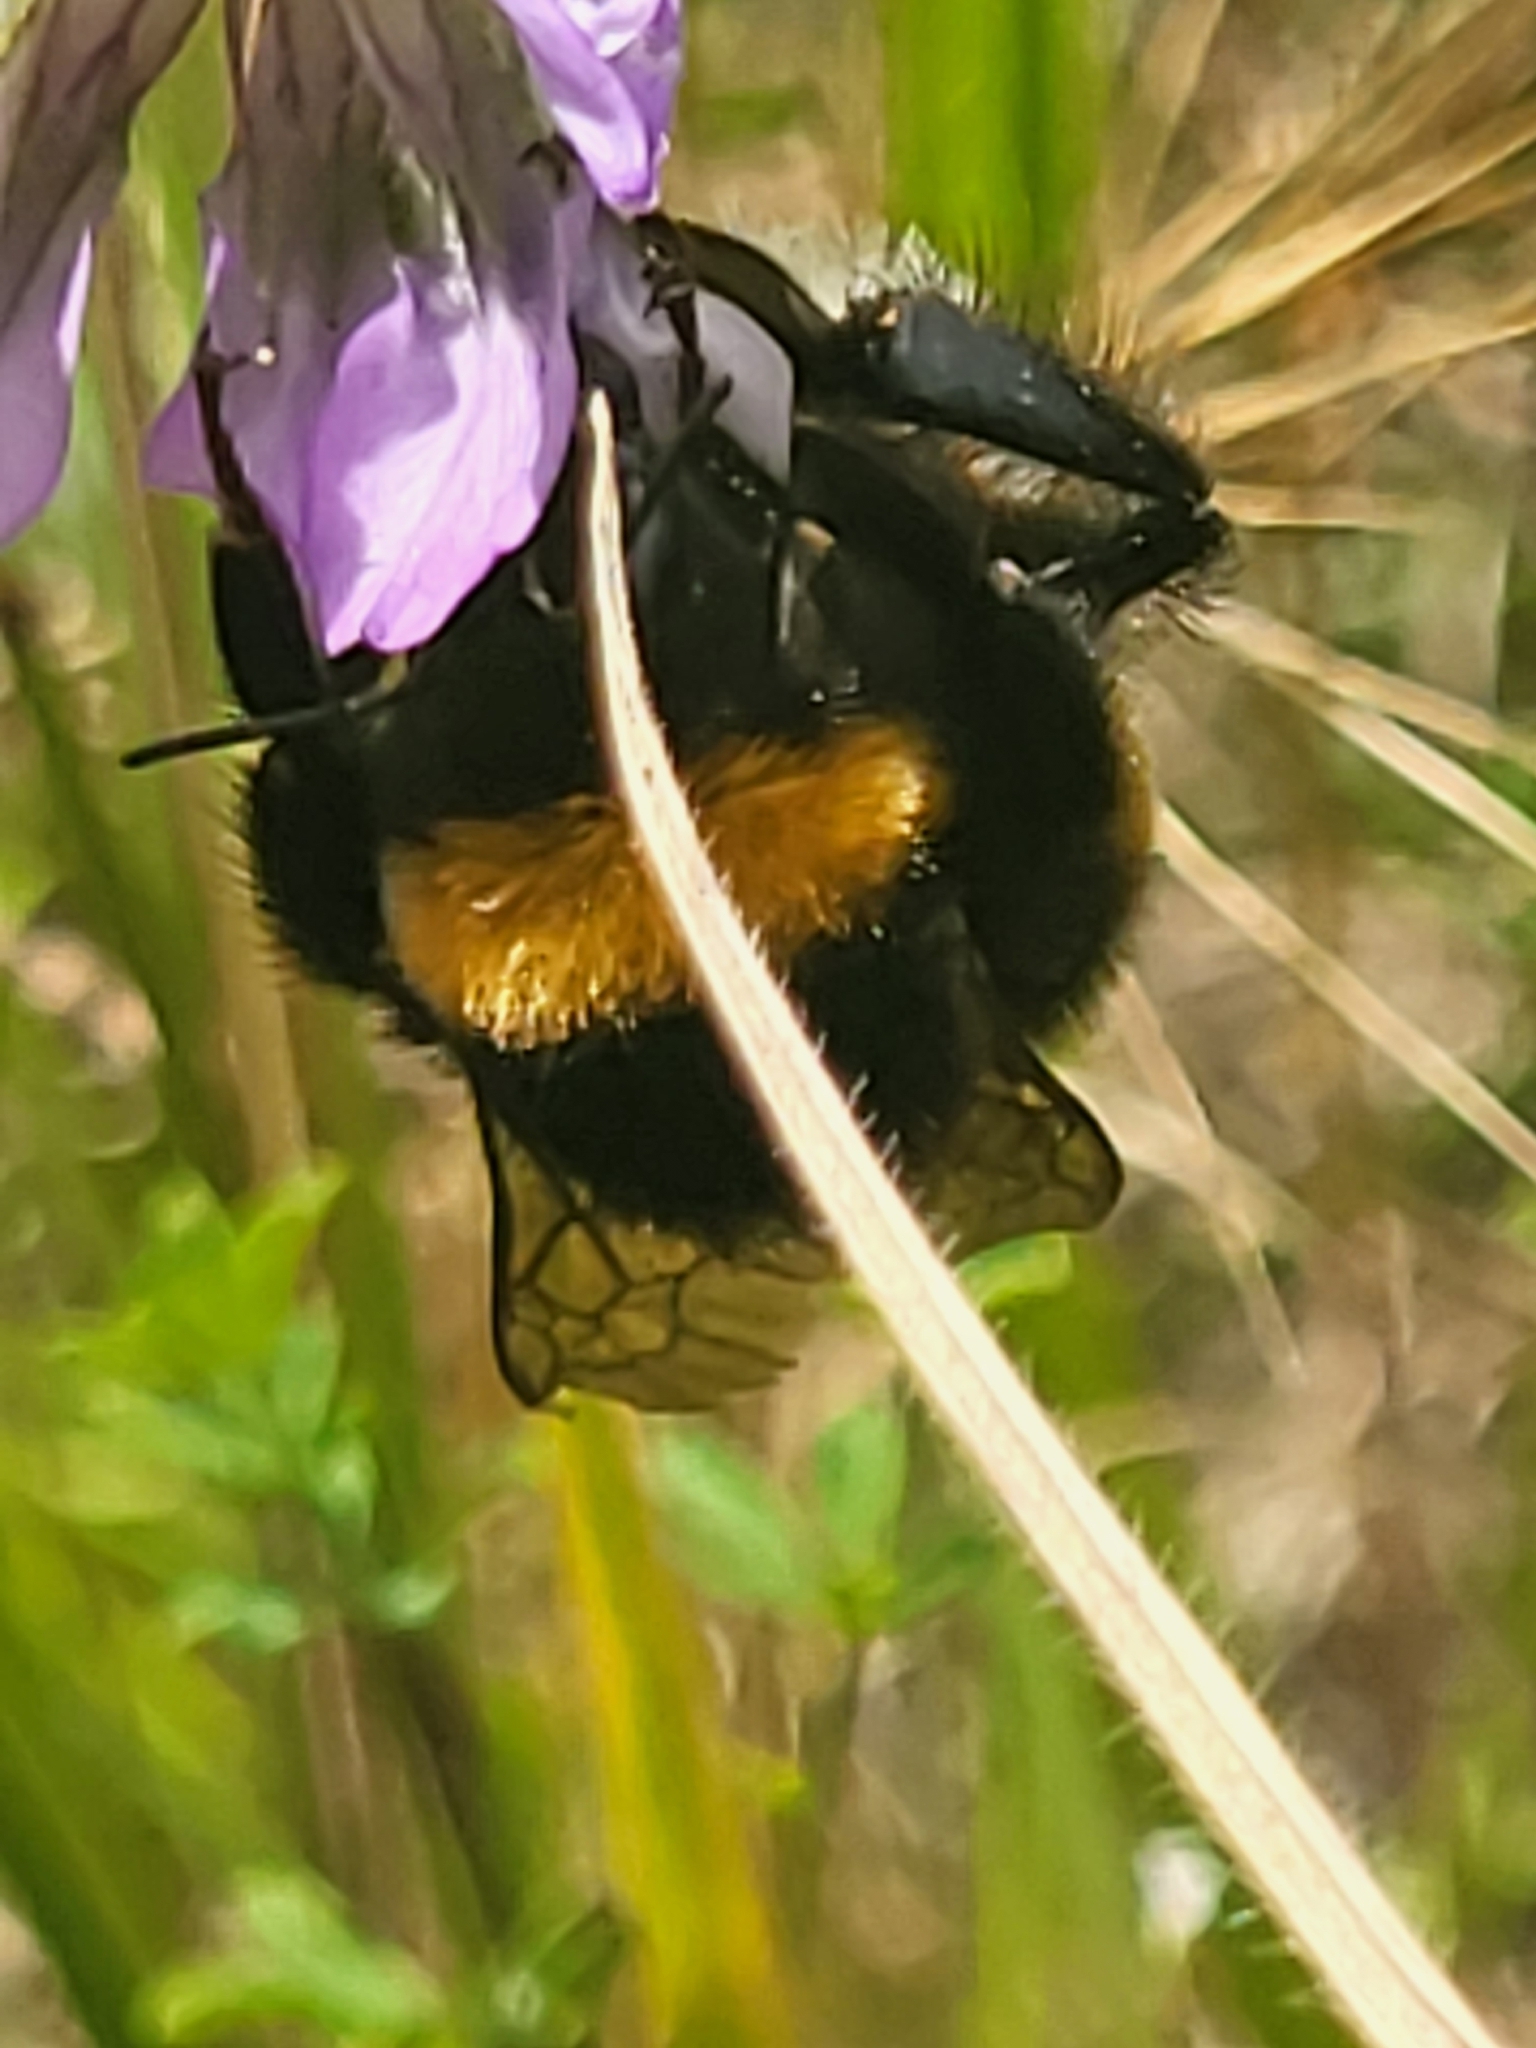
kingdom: Animalia
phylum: Arthropoda
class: Insecta
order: Hymenoptera
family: Apidae
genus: Bombus
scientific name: Bombus terrestris
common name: Buff-tailed bumblebee
